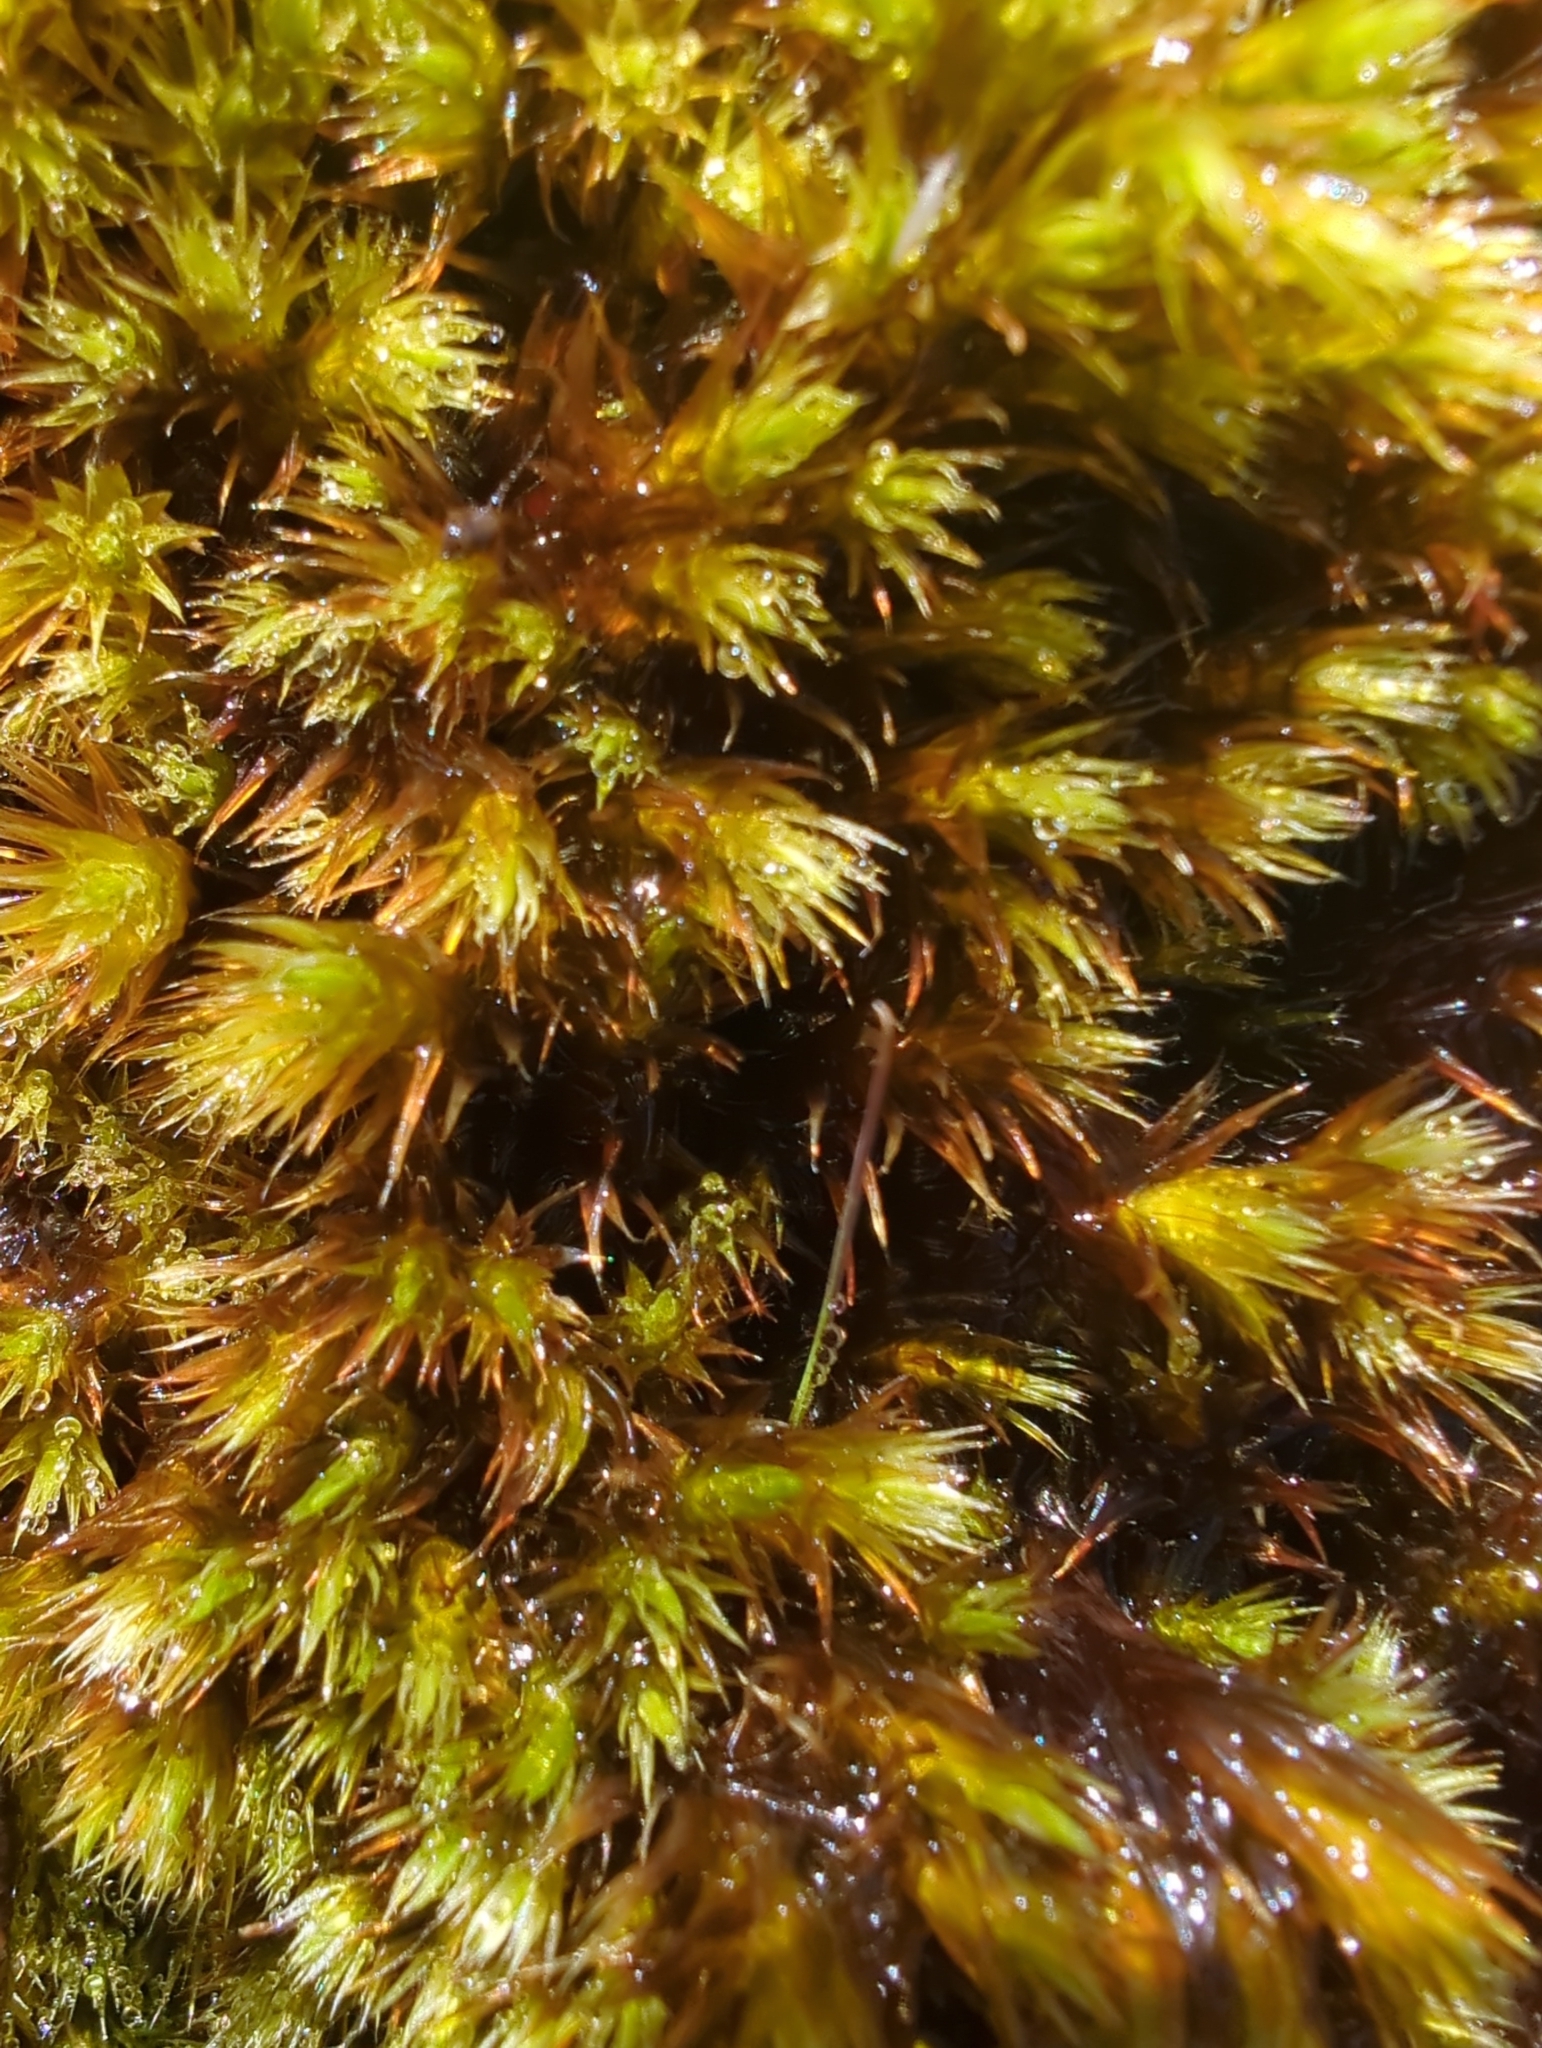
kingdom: Plantae
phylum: Bryophyta
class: Bryopsida
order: Bartramiales
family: Bartramiaceae
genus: Breutelia
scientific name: Breutelia pendula
